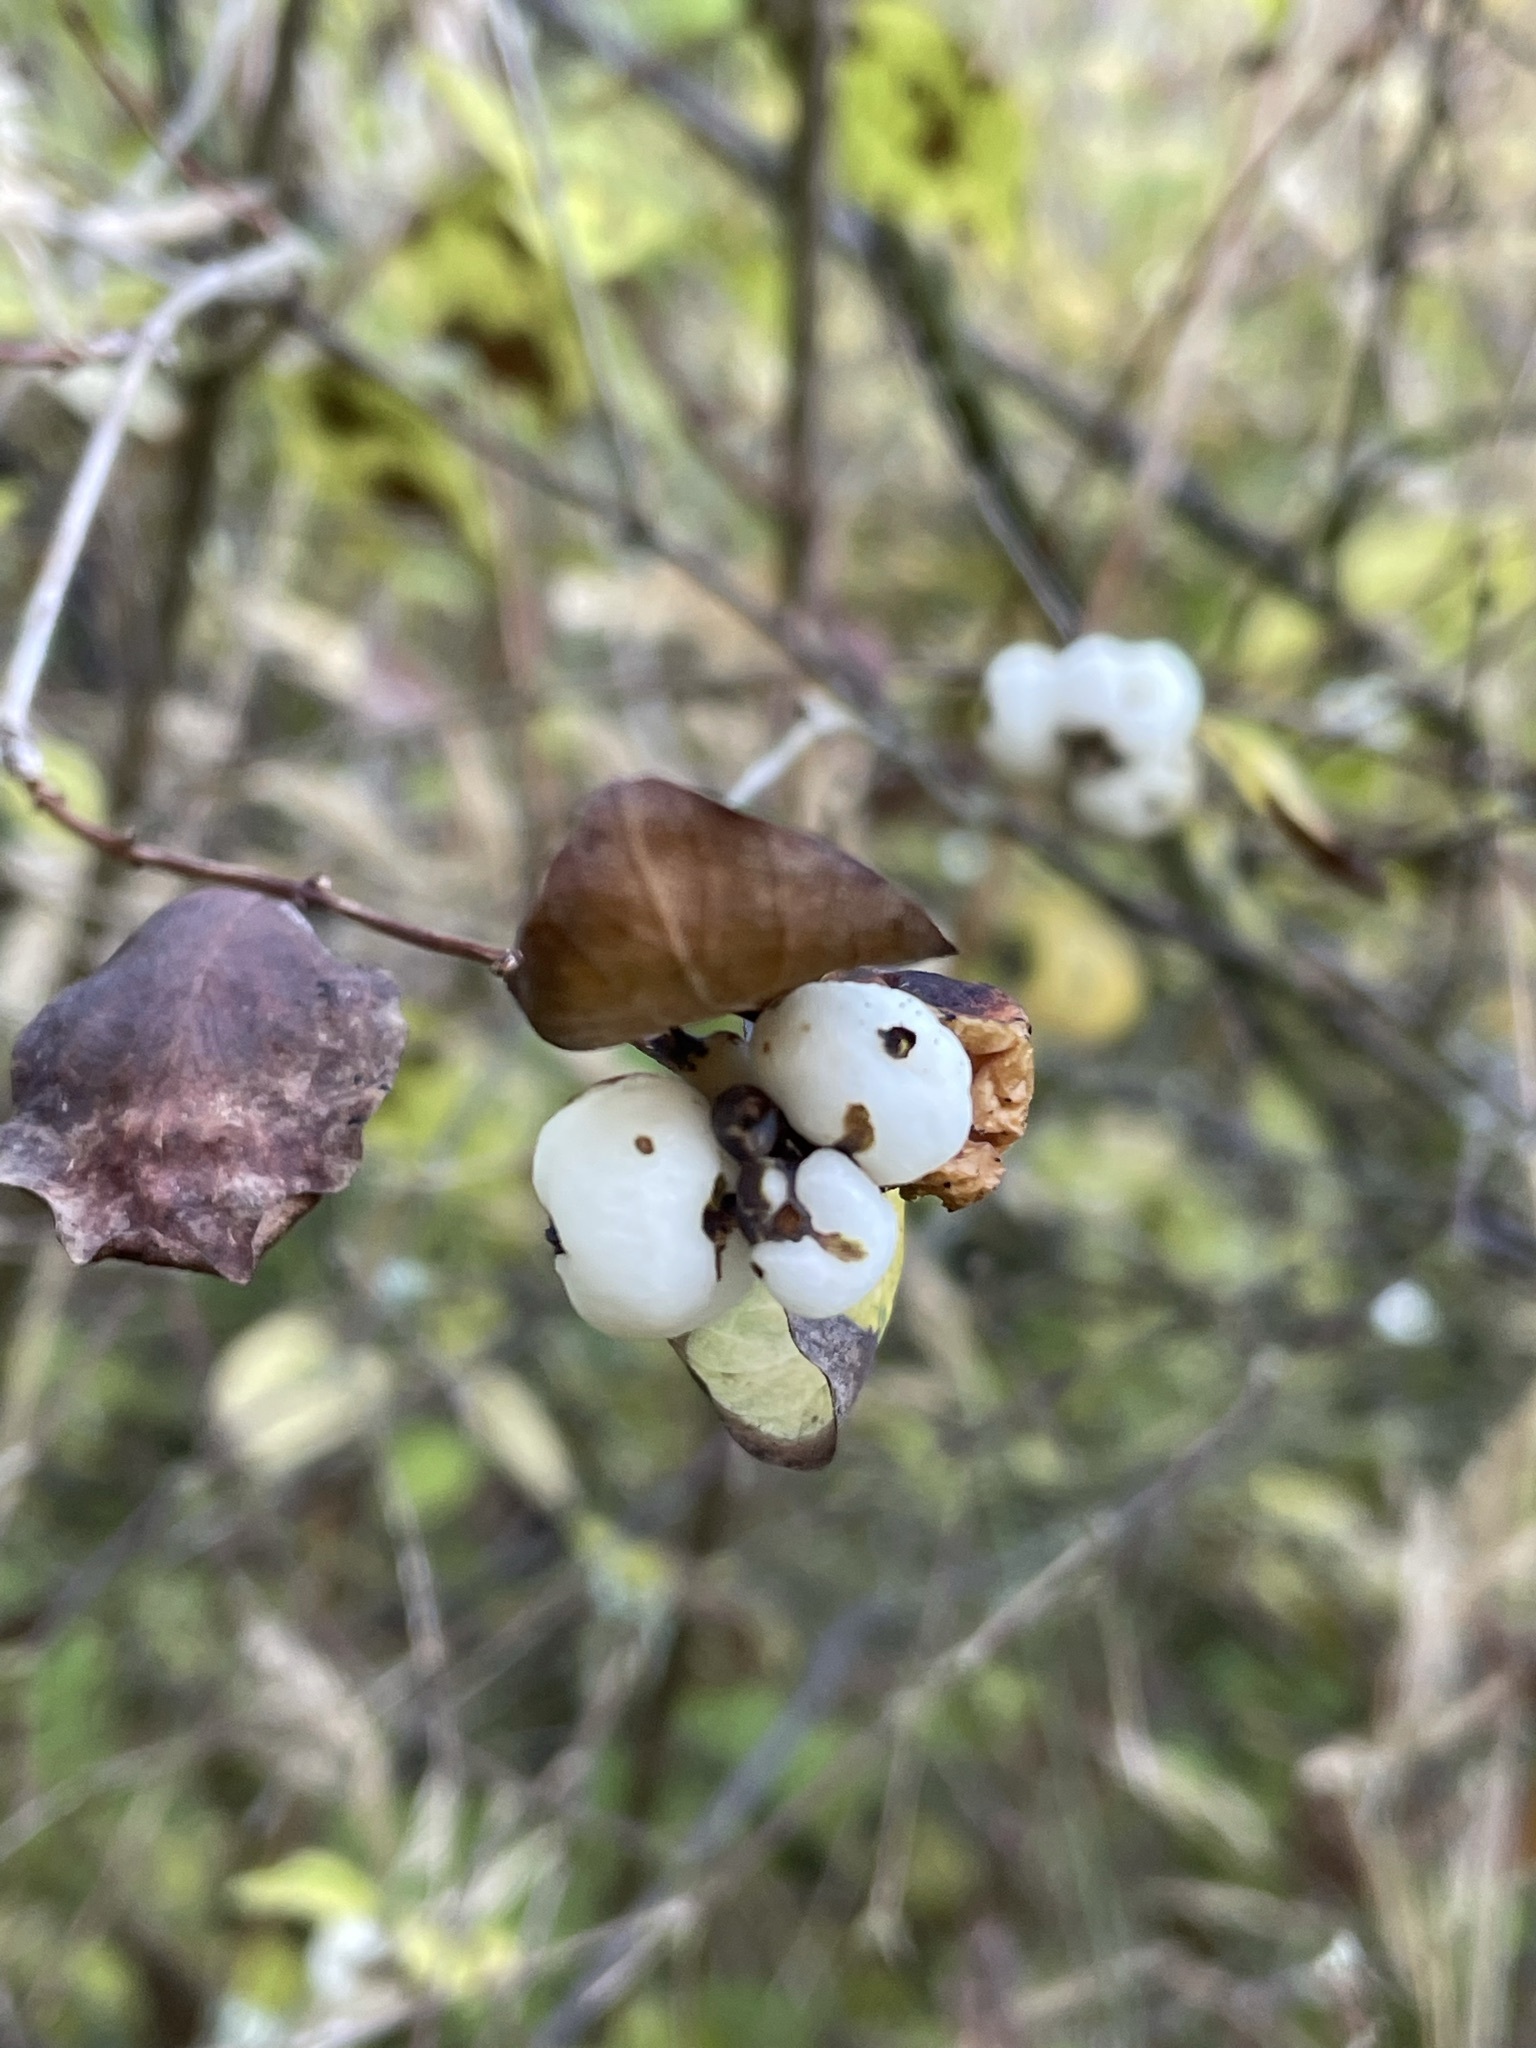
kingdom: Plantae
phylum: Tracheophyta
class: Magnoliopsida
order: Dipsacales
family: Caprifoliaceae
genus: Symphoricarpos
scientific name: Symphoricarpos albus
